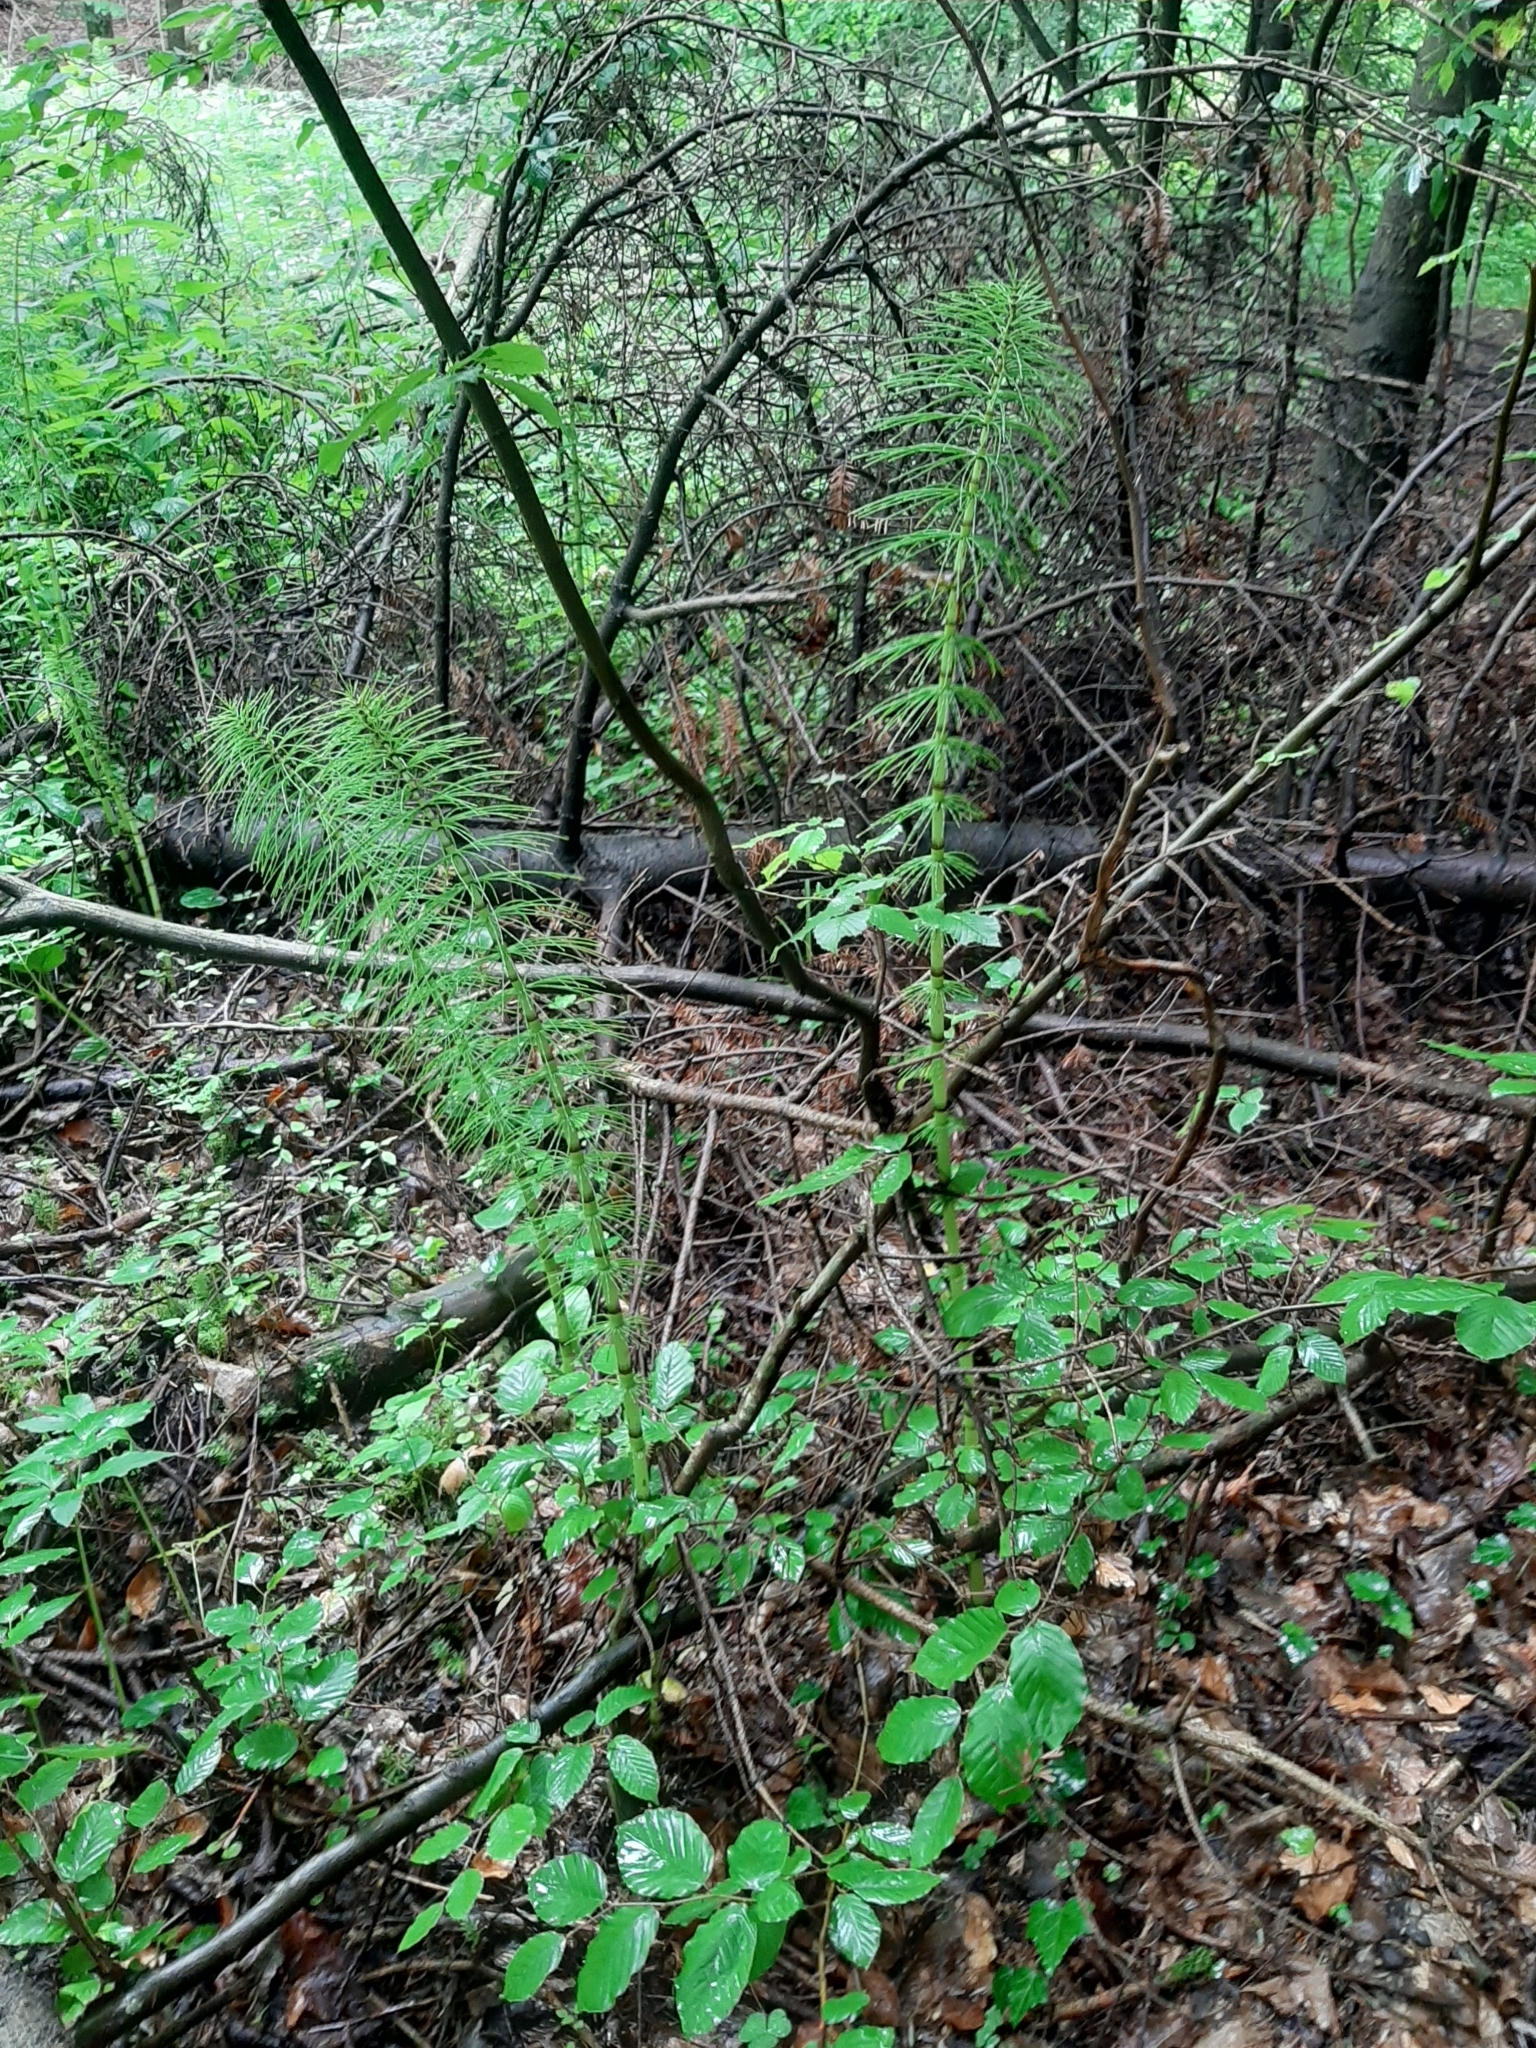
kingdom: Plantae
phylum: Tracheophyta
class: Polypodiopsida
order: Equisetales
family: Equisetaceae
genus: Equisetum
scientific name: Equisetum telmateia
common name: Great horsetail
